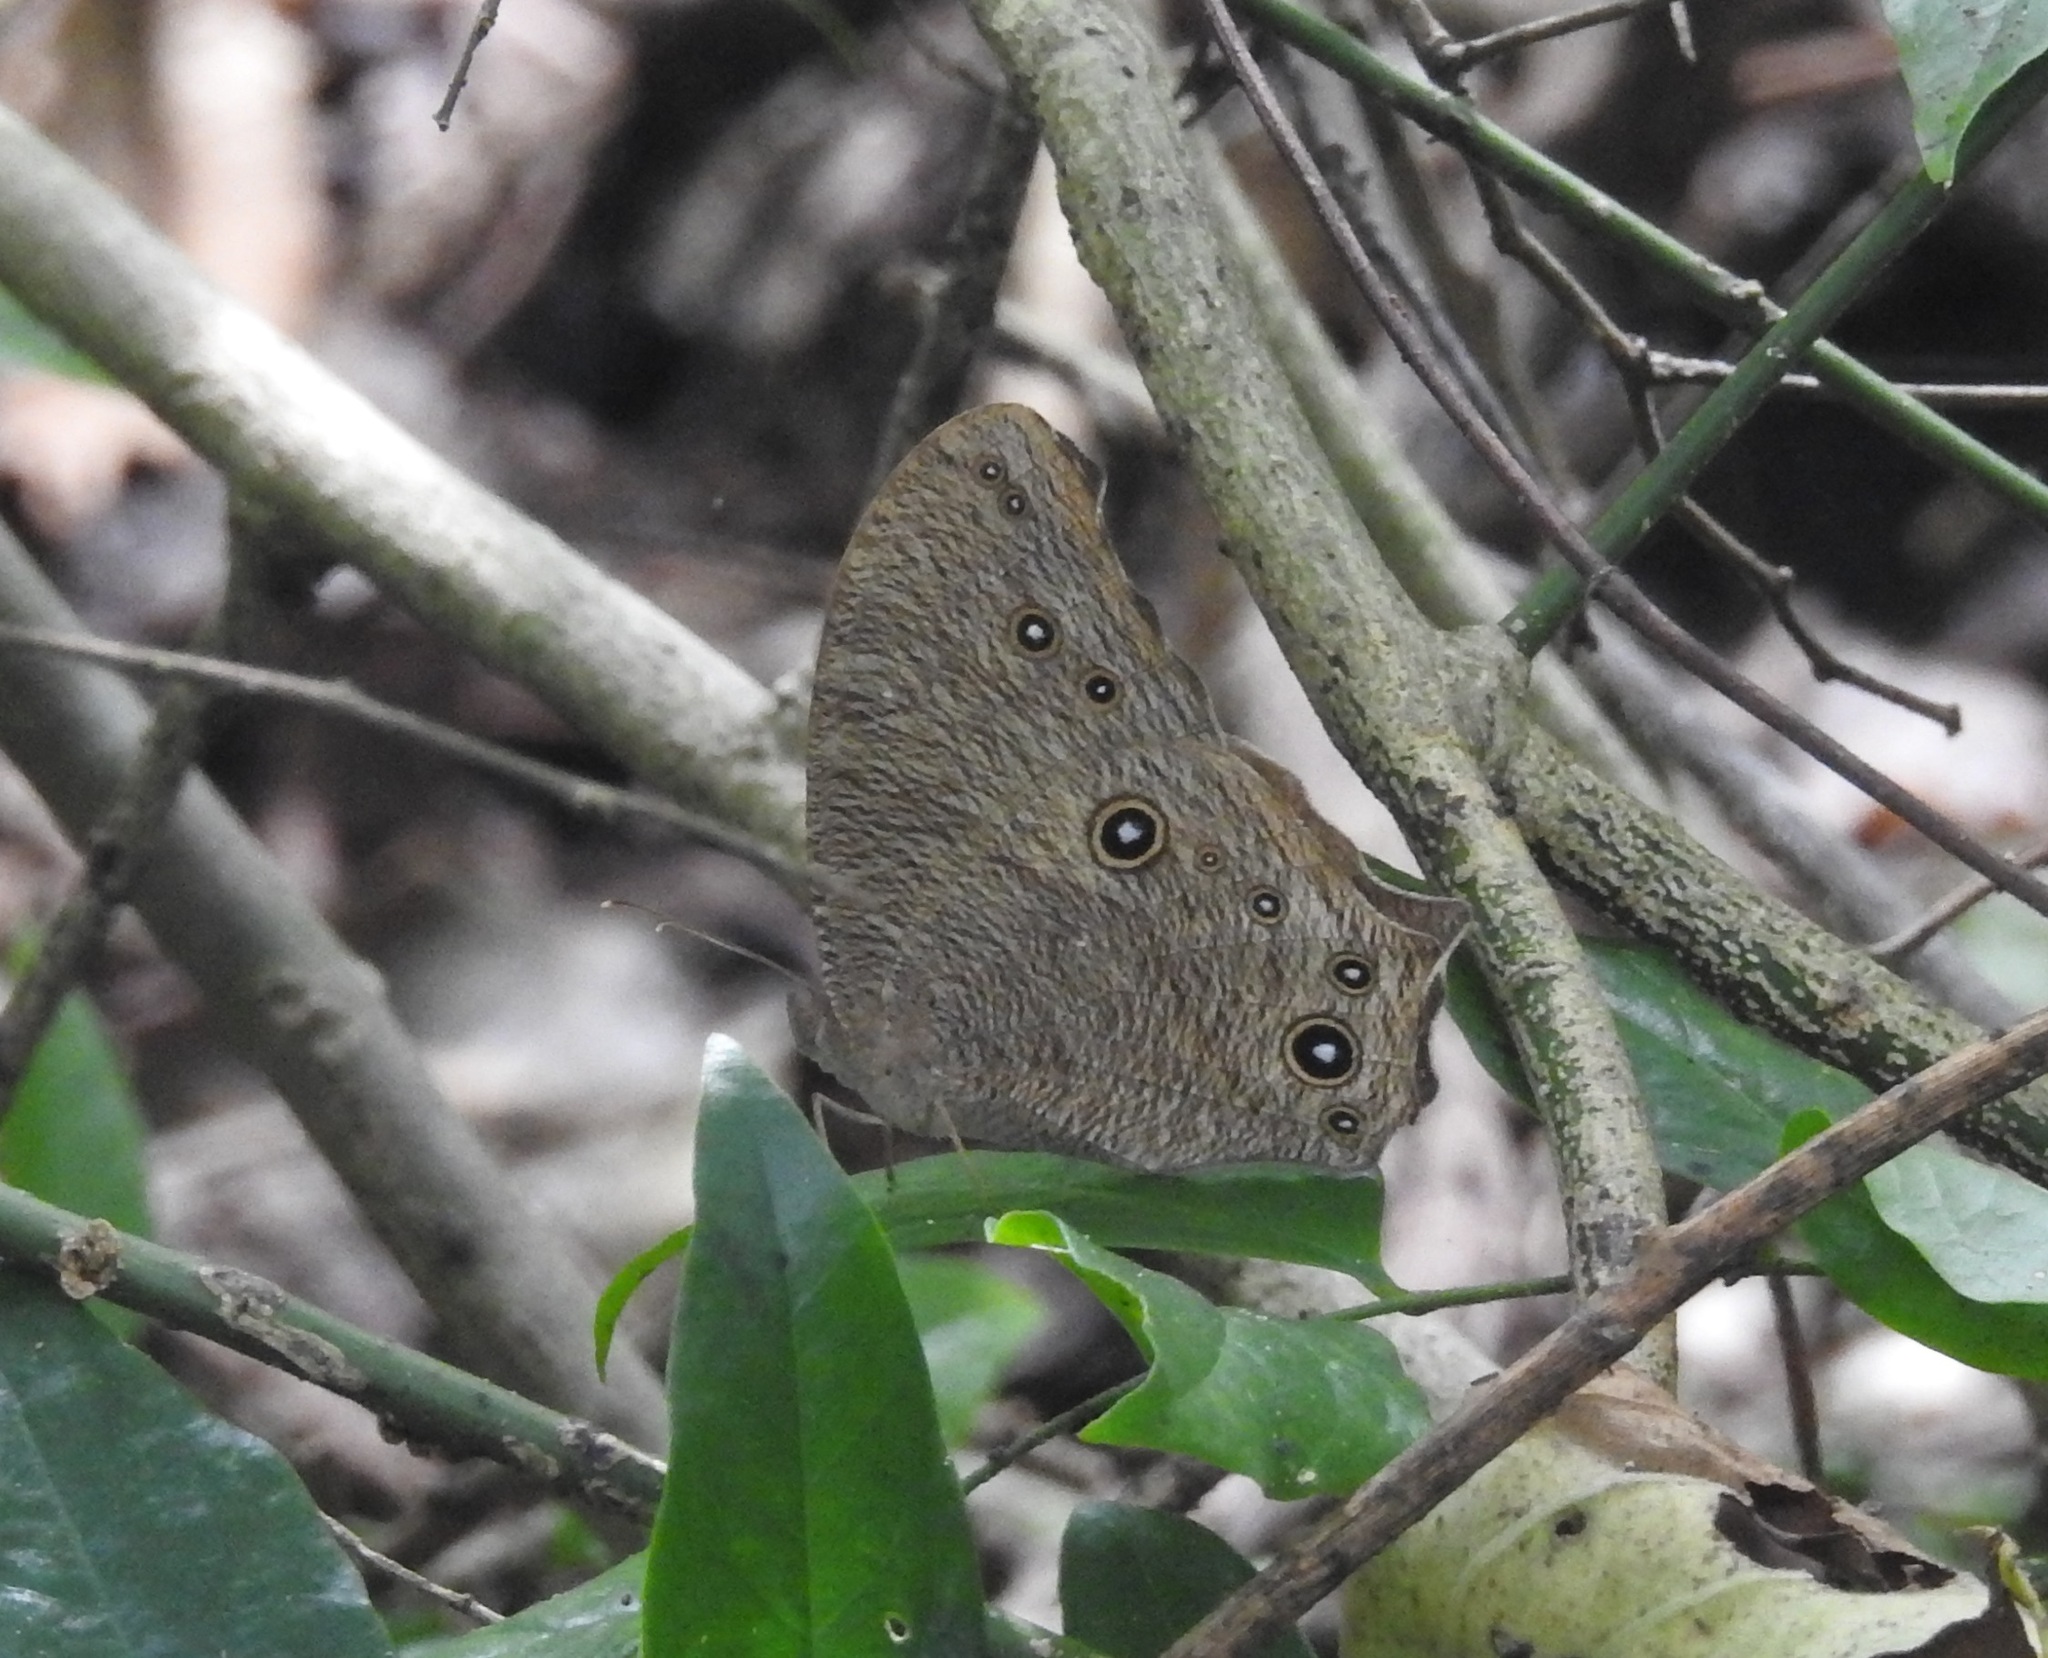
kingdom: Animalia
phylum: Arthropoda
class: Insecta
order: Lepidoptera
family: Nymphalidae
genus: Melanitis
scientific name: Melanitis leda
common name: Twilight brown
